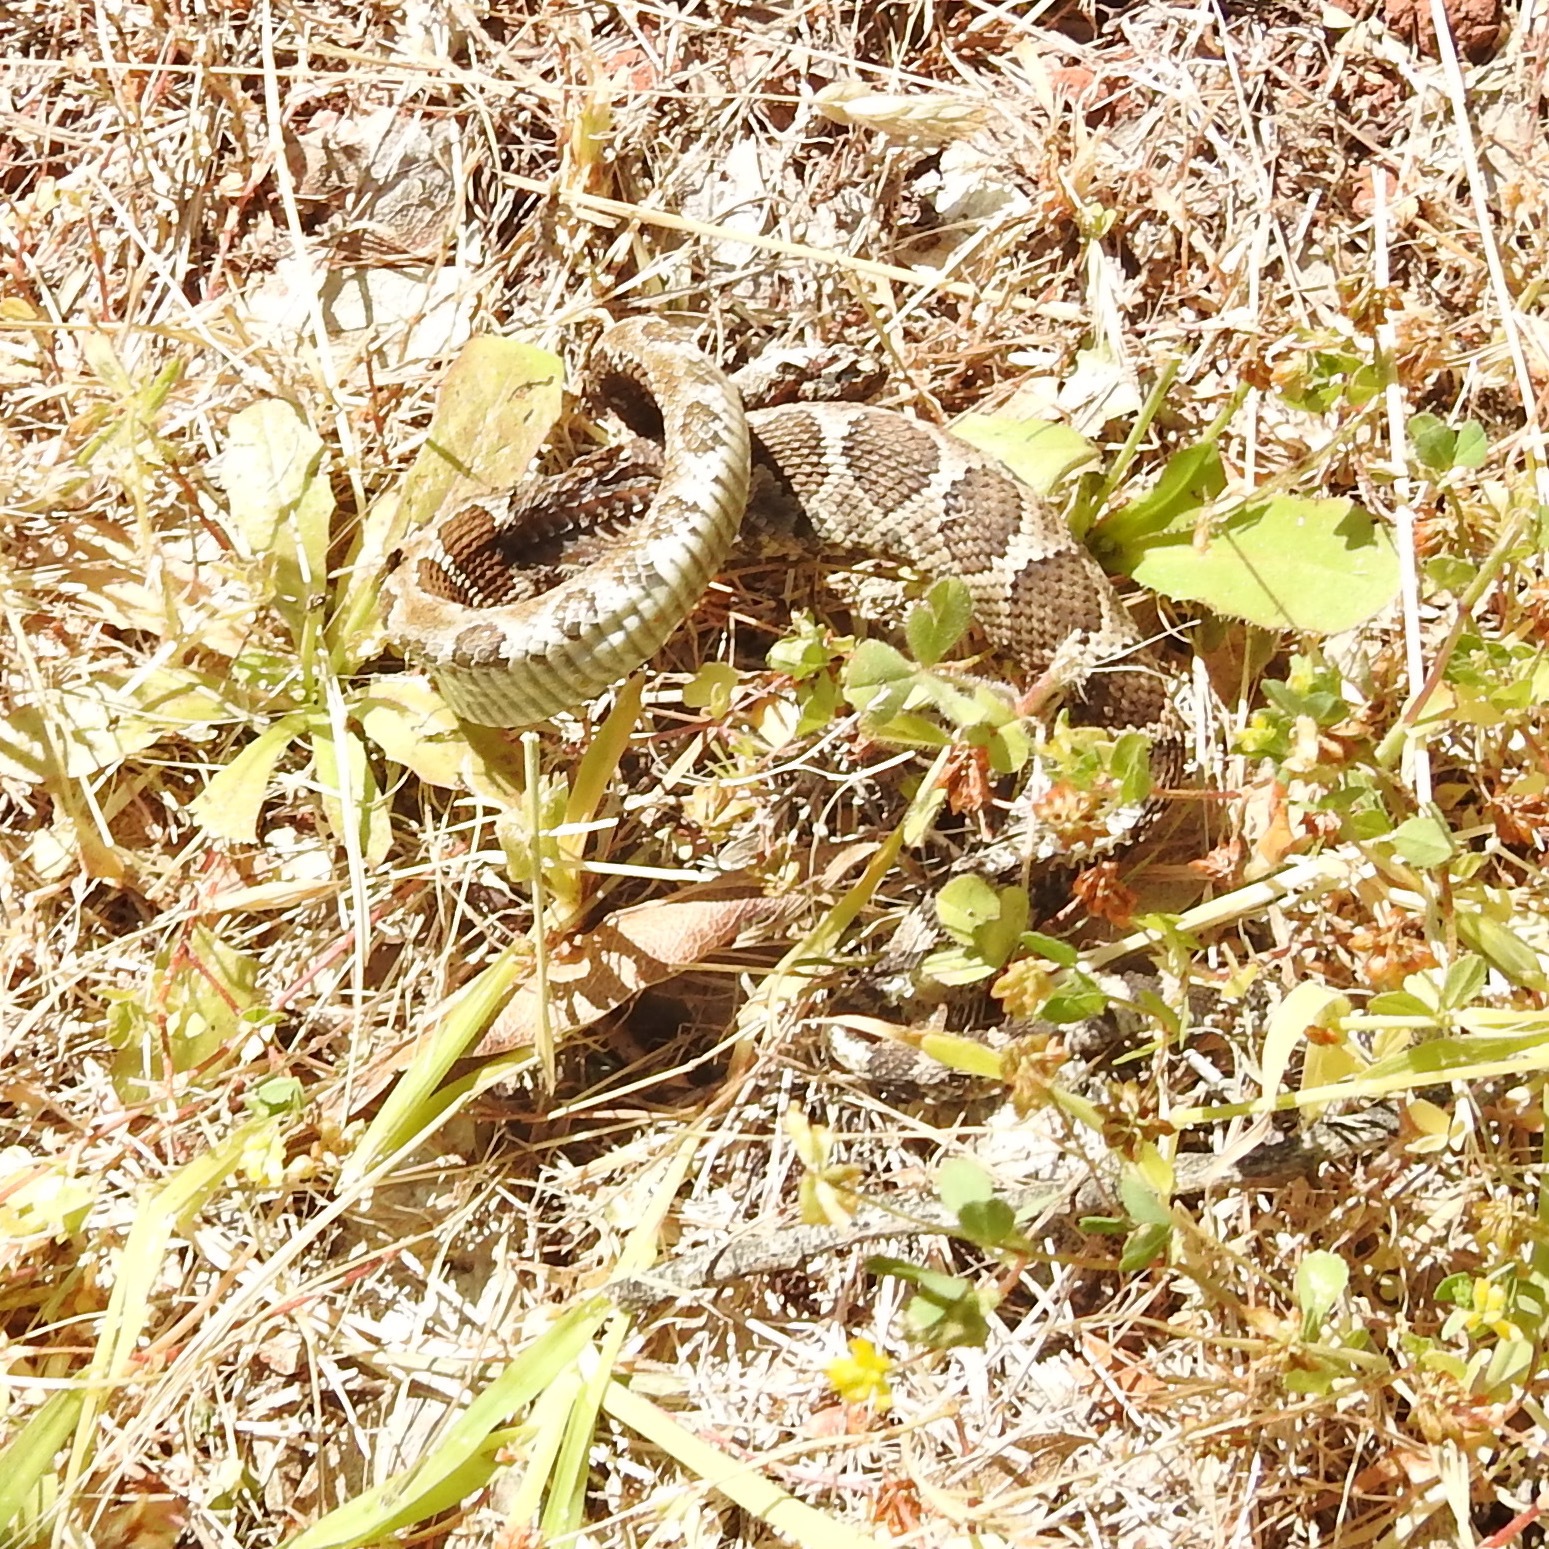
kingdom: Animalia
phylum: Chordata
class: Squamata
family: Viperidae
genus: Crotalus
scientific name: Crotalus oreganus
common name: Abyssus
